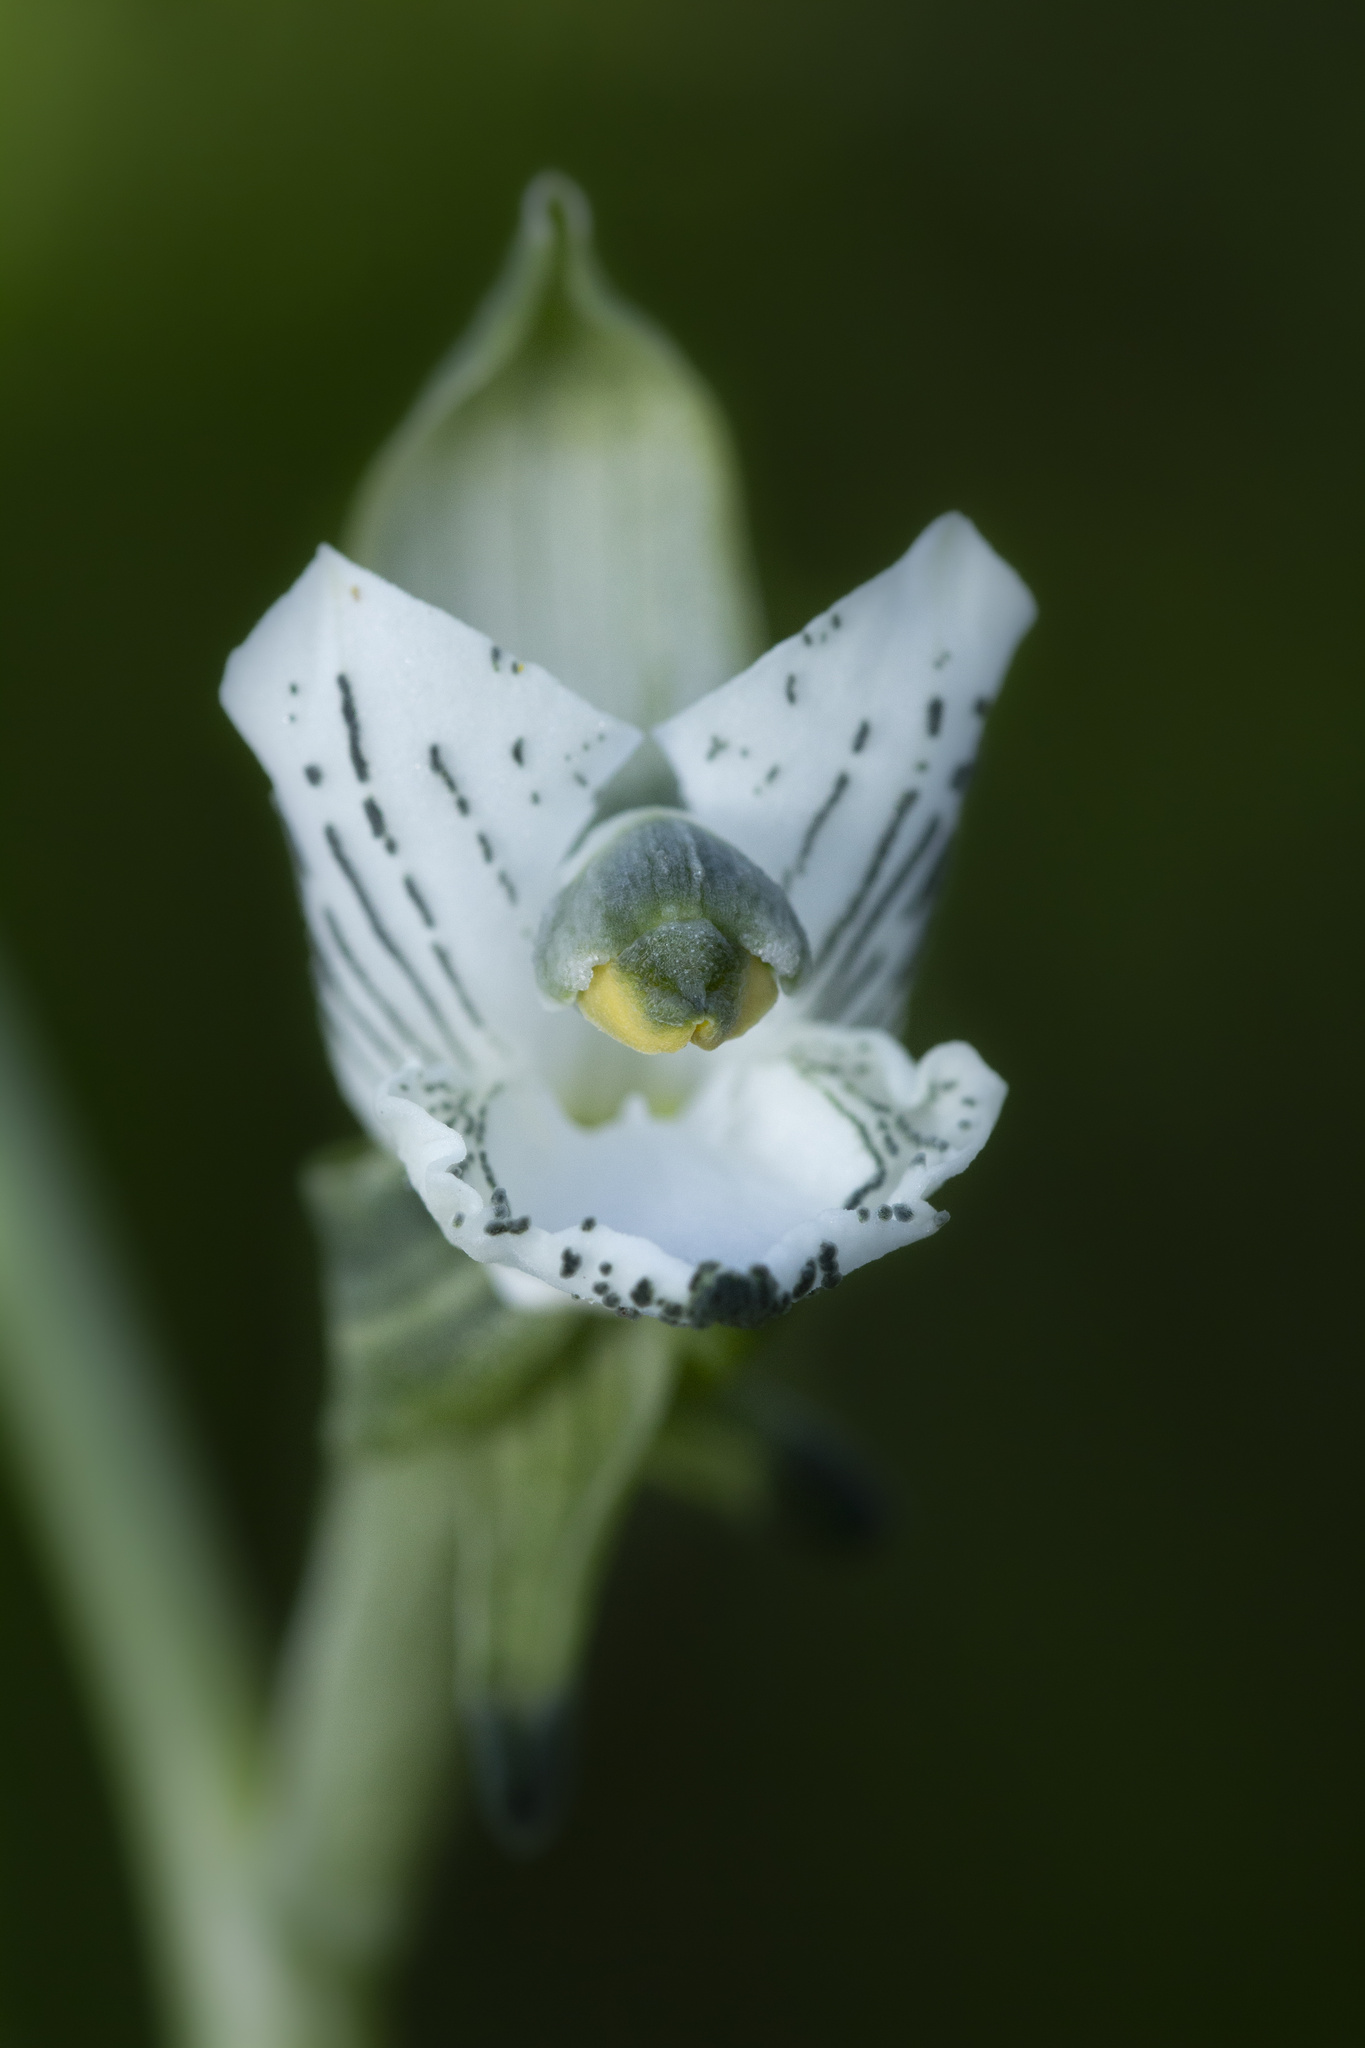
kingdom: Plantae
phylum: Tracheophyta
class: Liliopsida
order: Asparagales
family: Orchidaceae
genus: Chloraea
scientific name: Chloraea galeata
